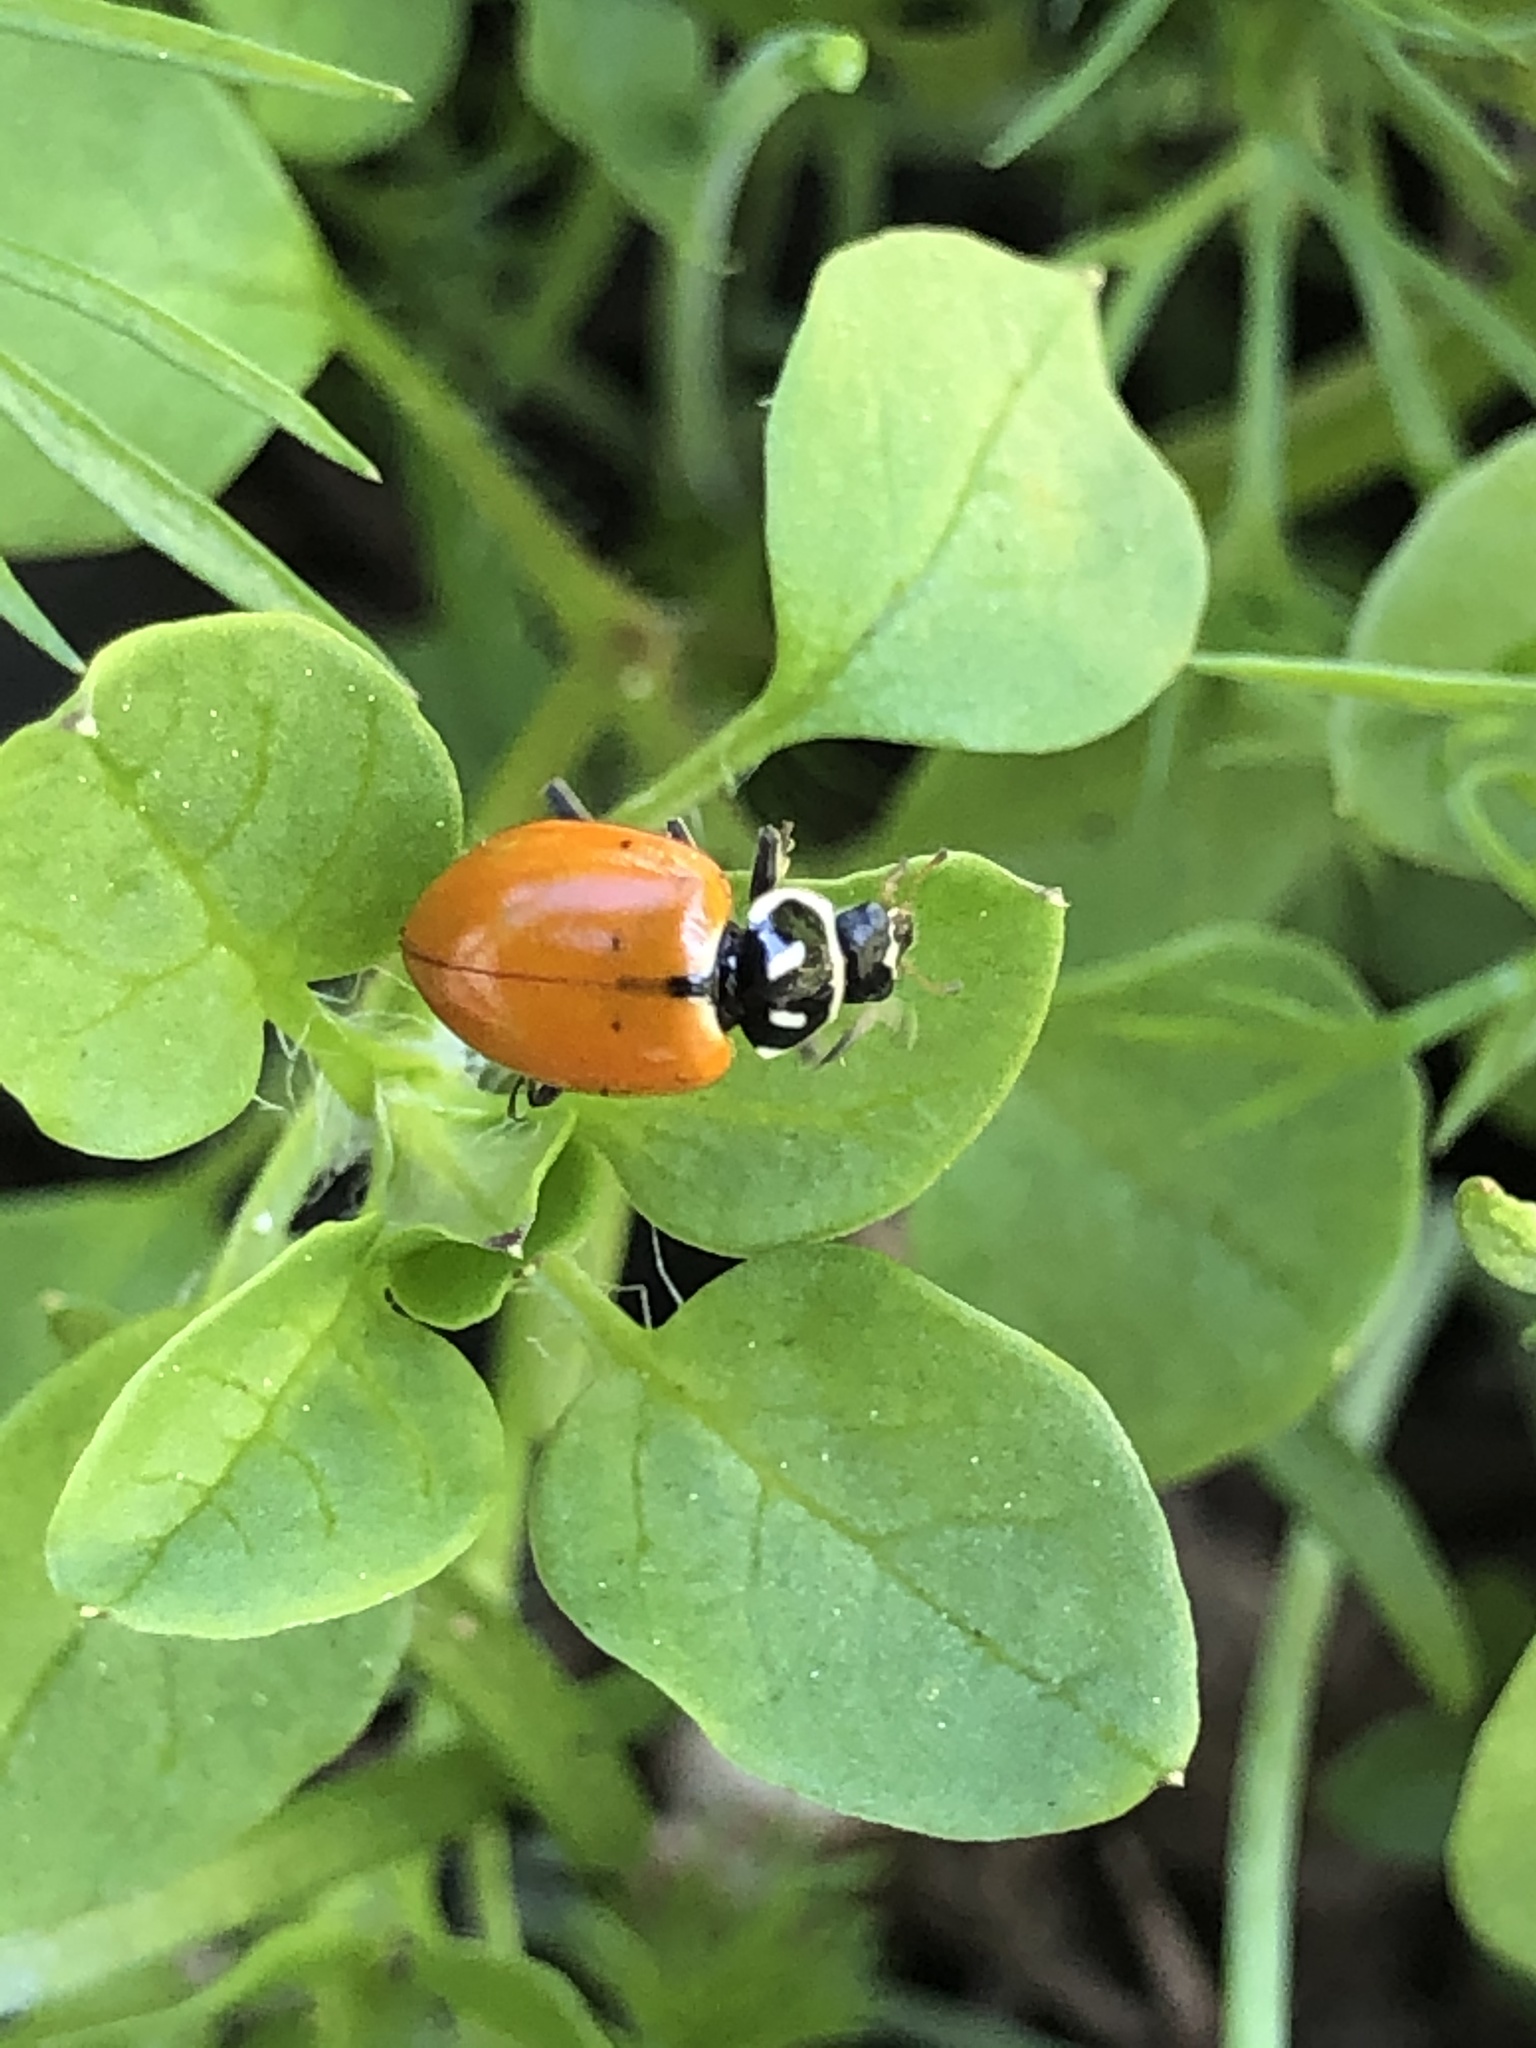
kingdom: Animalia
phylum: Arthropoda
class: Insecta
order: Coleoptera
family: Coccinellidae
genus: Hippodamia
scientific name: Hippodamia convergens
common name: Convergent lady beetle
